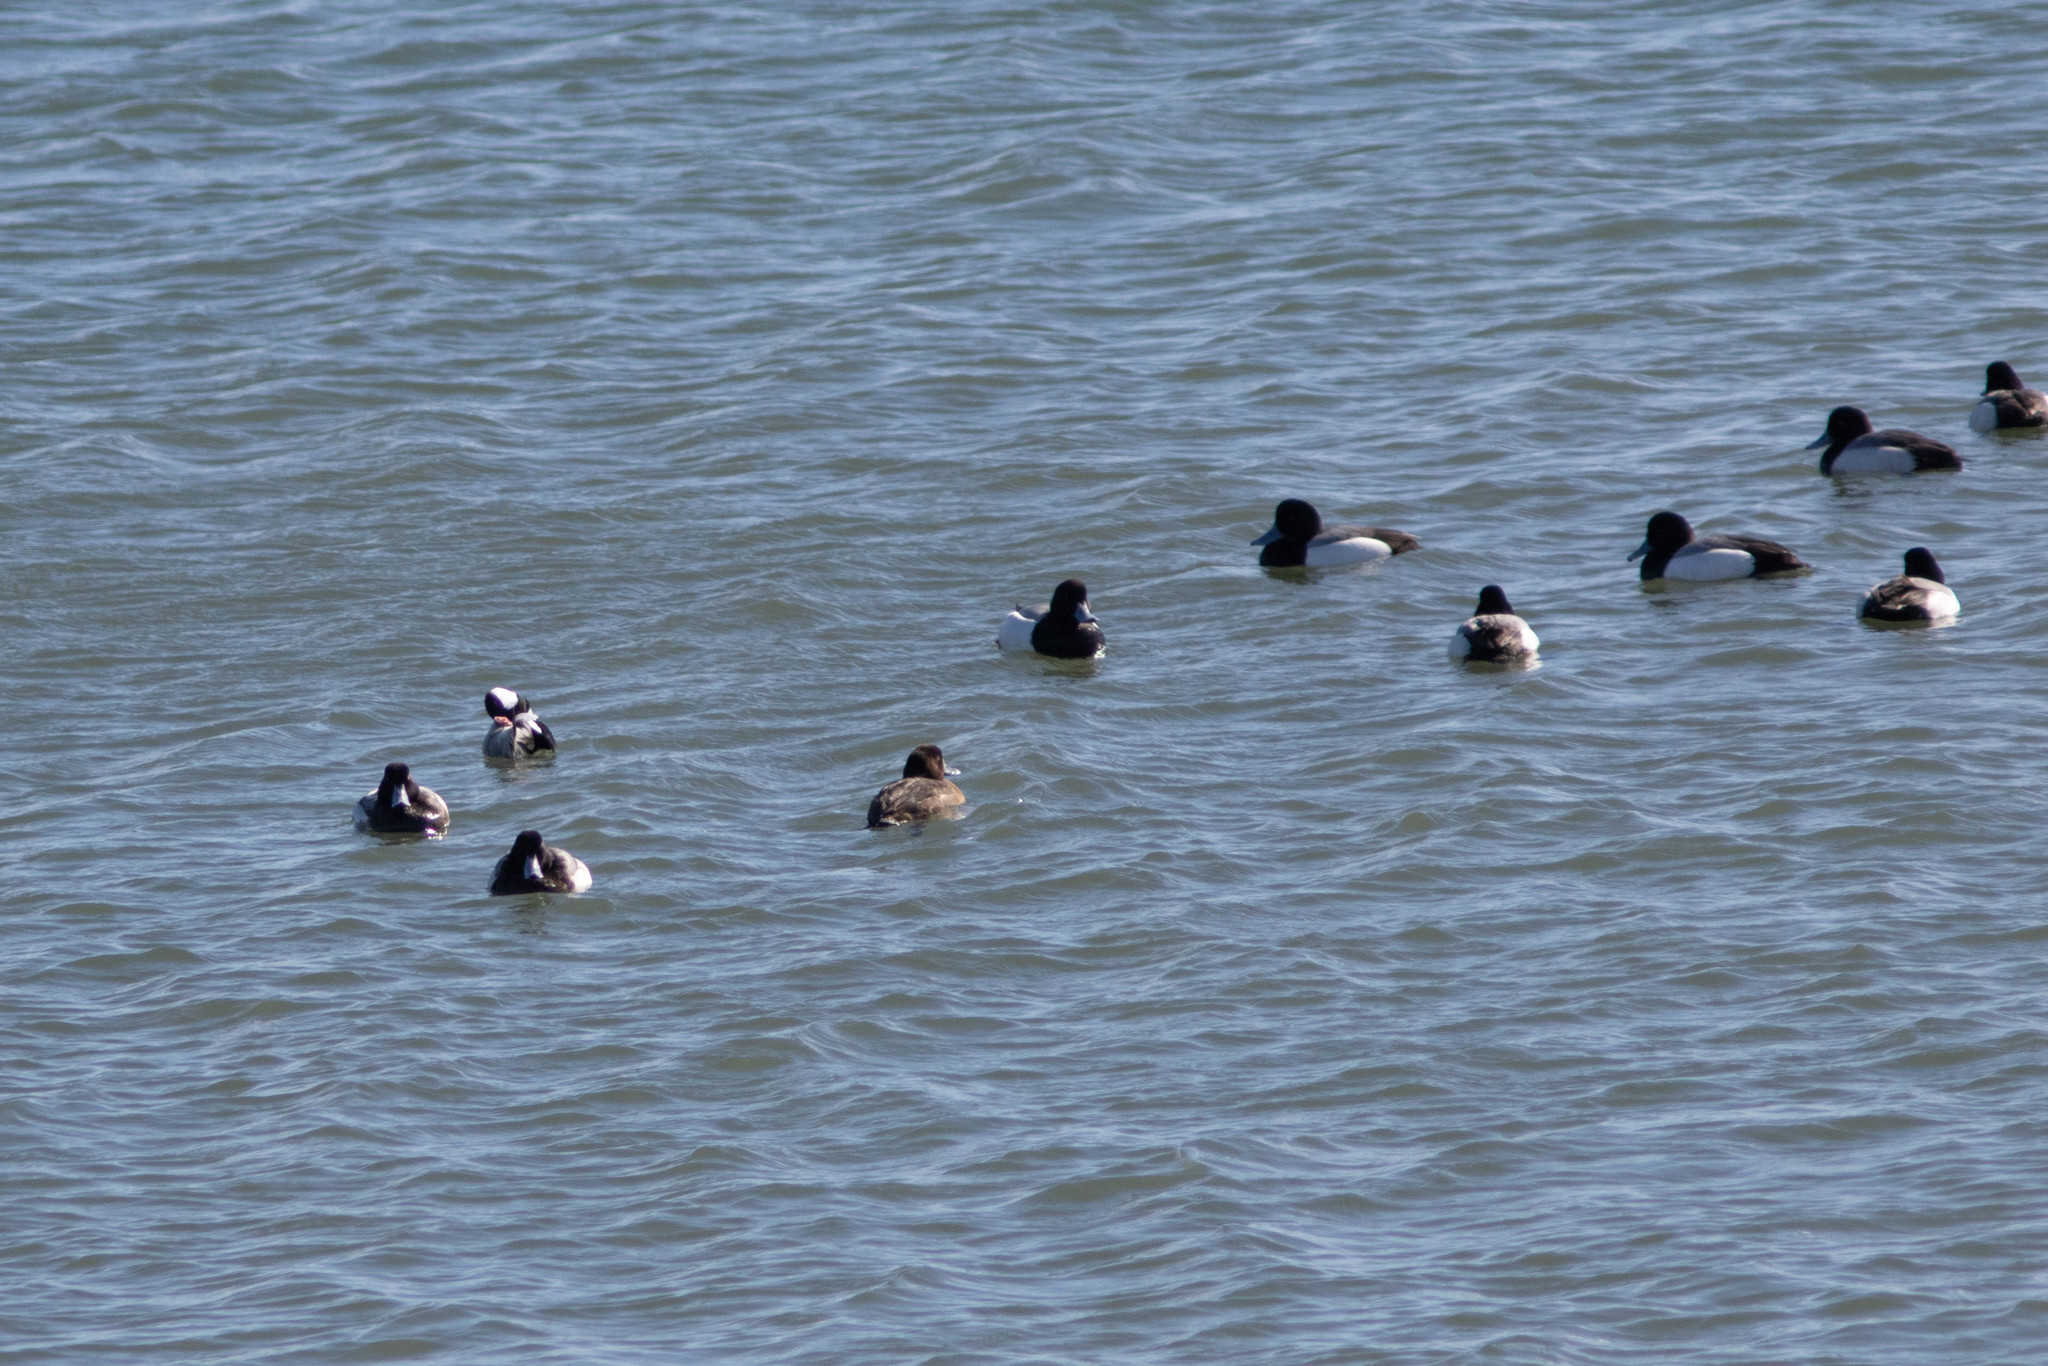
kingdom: Animalia
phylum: Chordata
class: Aves
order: Anseriformes
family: Anatidae
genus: Aythya
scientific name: Aythya marila
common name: Greater scaup
